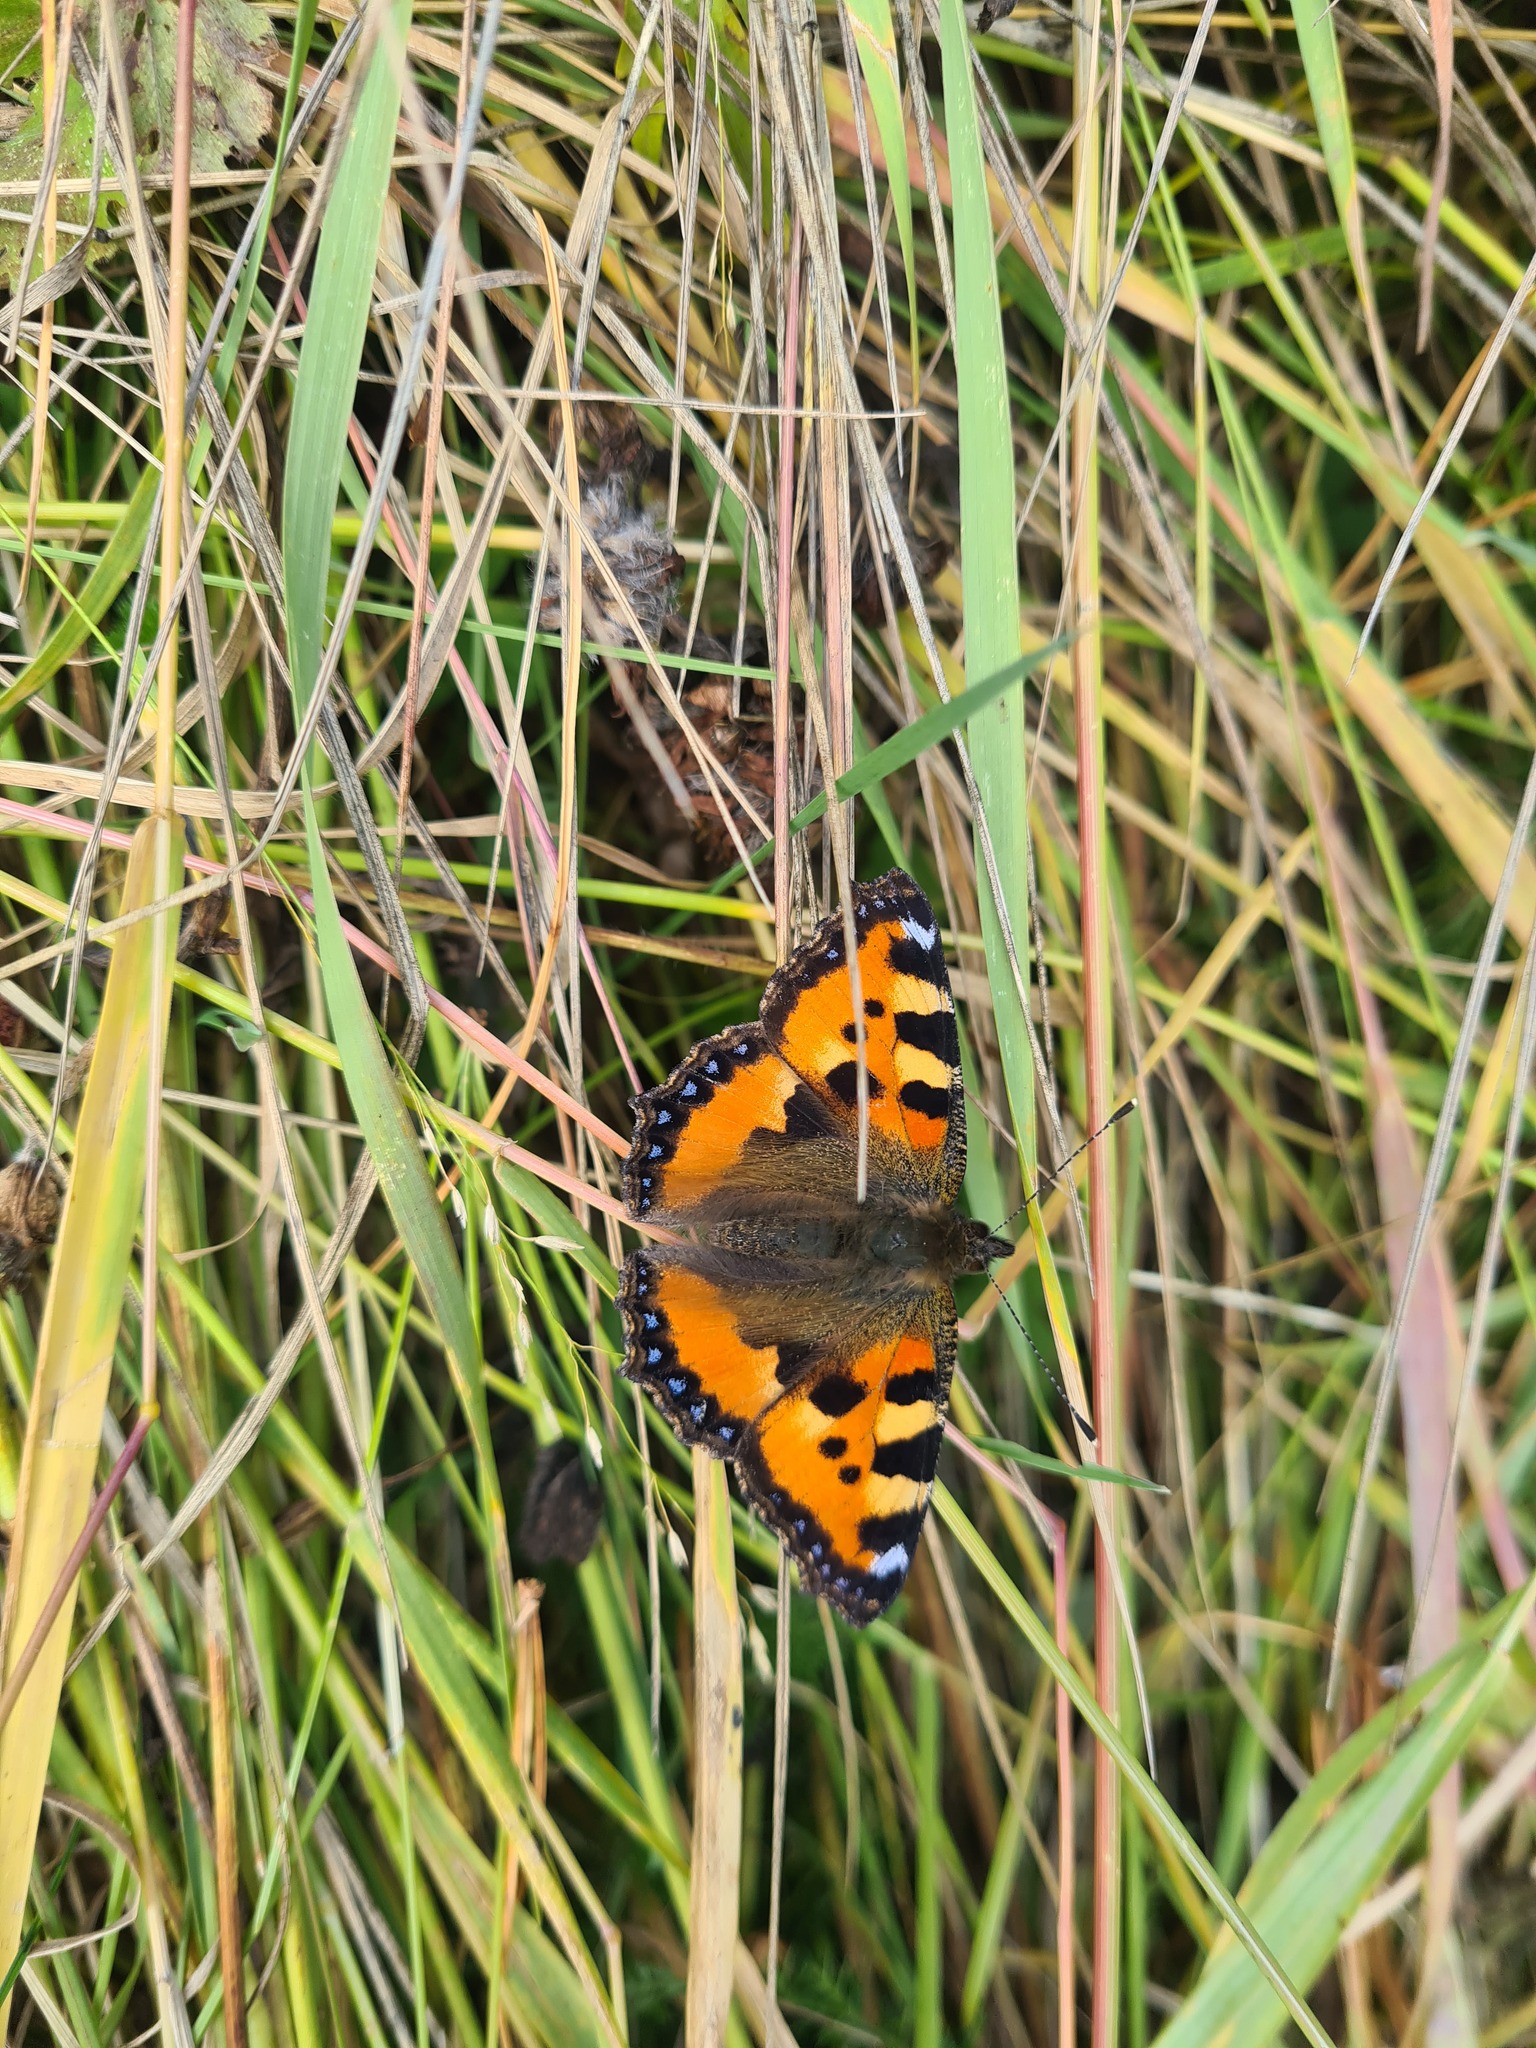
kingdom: Animalia
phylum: Arthropoda
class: Insecta
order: Lepidoptera
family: Nymphalidae
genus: Aglais
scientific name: Aglais urticae
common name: Small tortoiseshell
